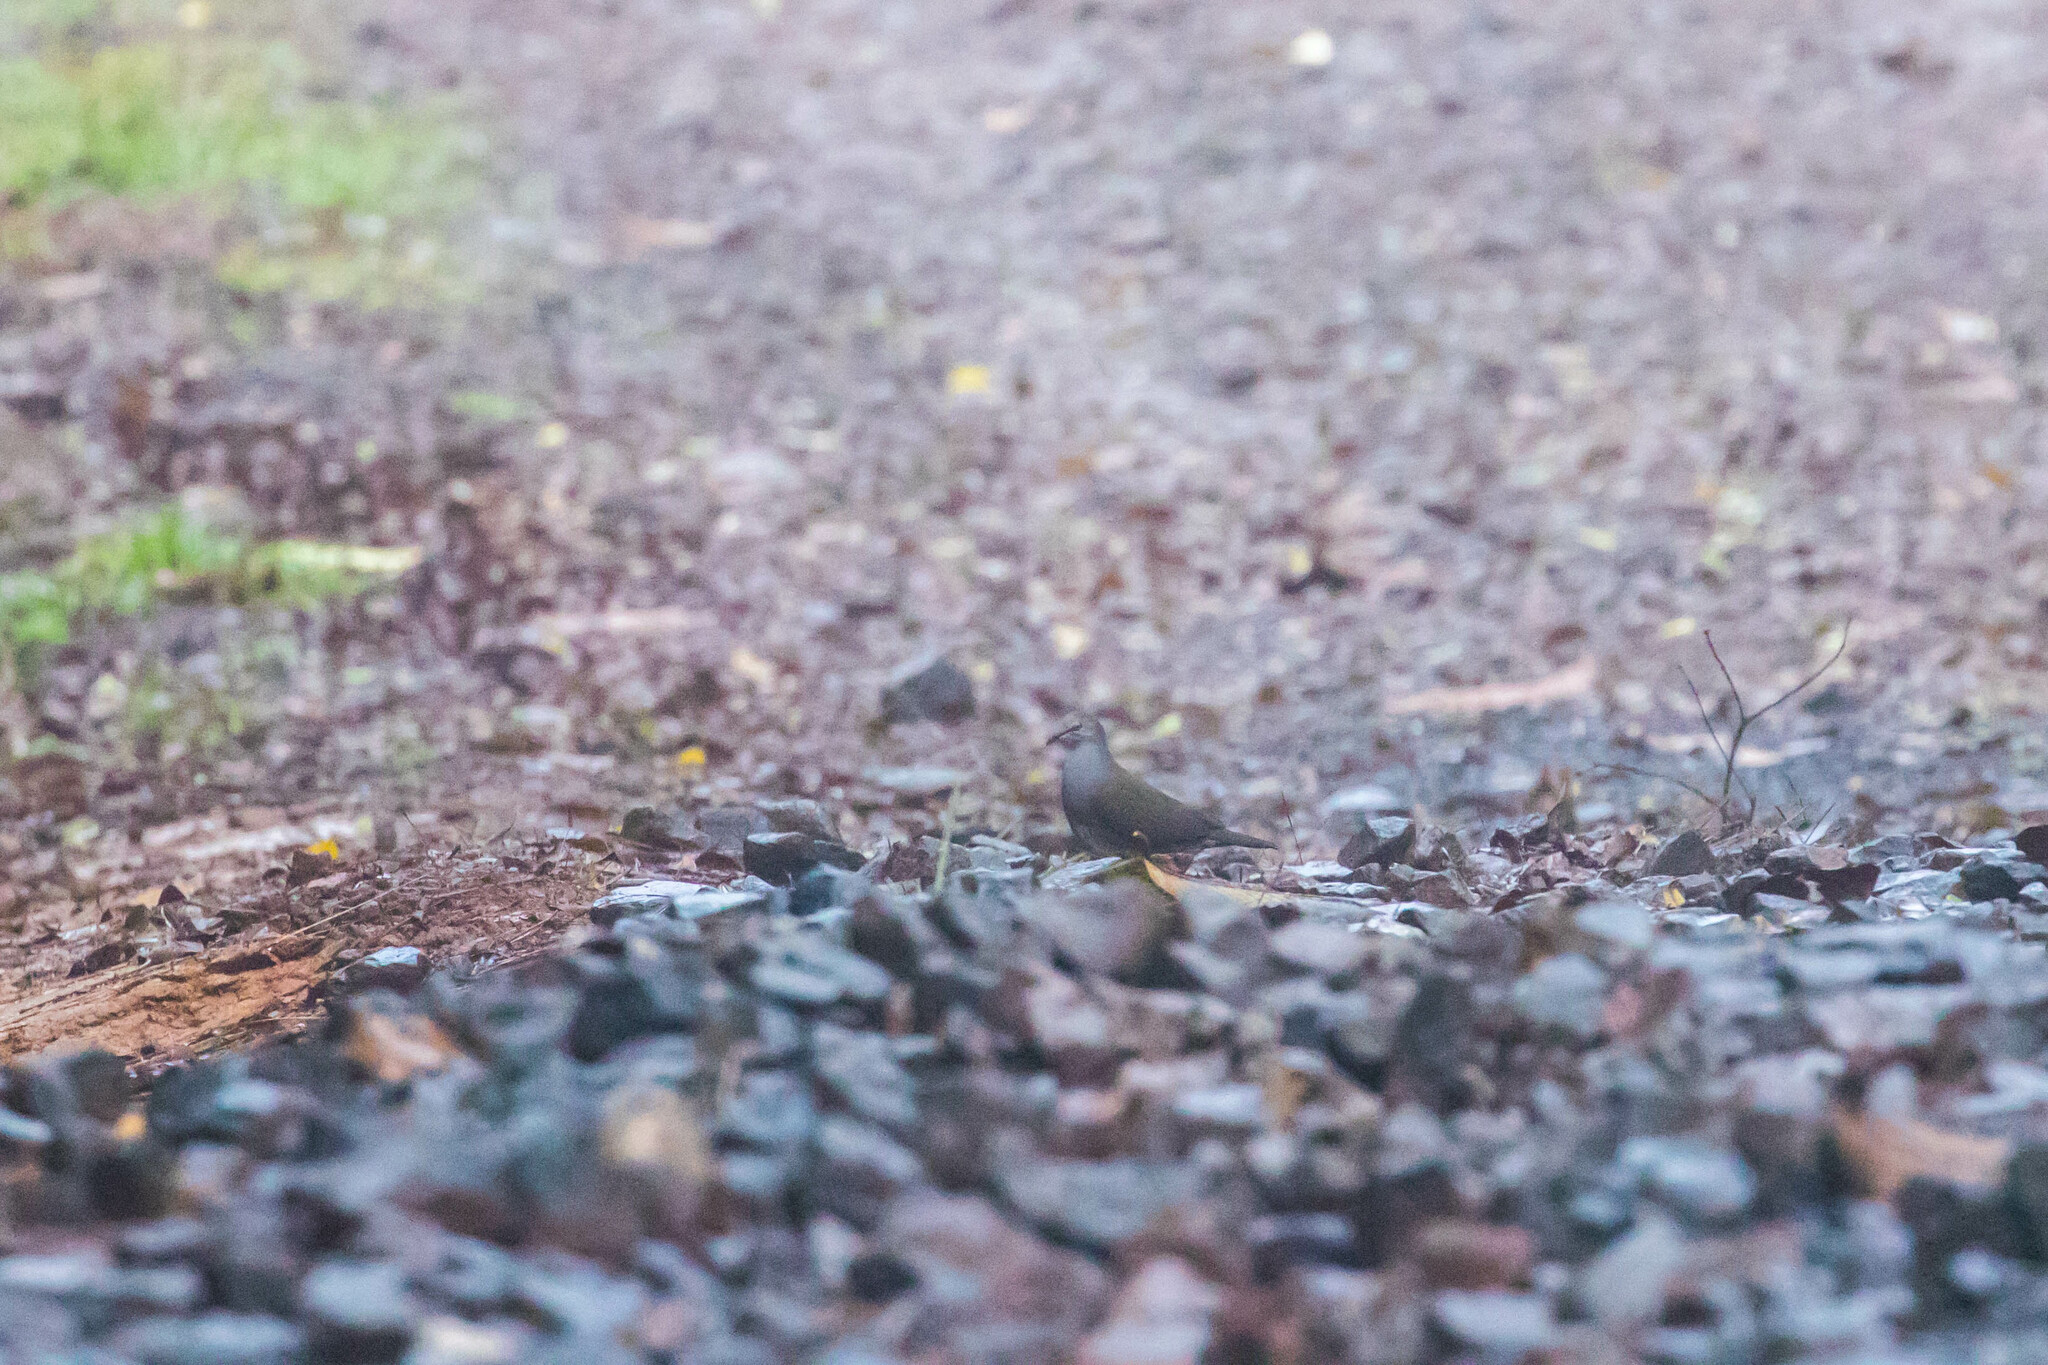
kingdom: Animalia
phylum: Chordata
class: Aves
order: Columbiformes
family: Columbidae
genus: Leptotila
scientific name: Leptotila cassinii
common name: Grey-chested dove
